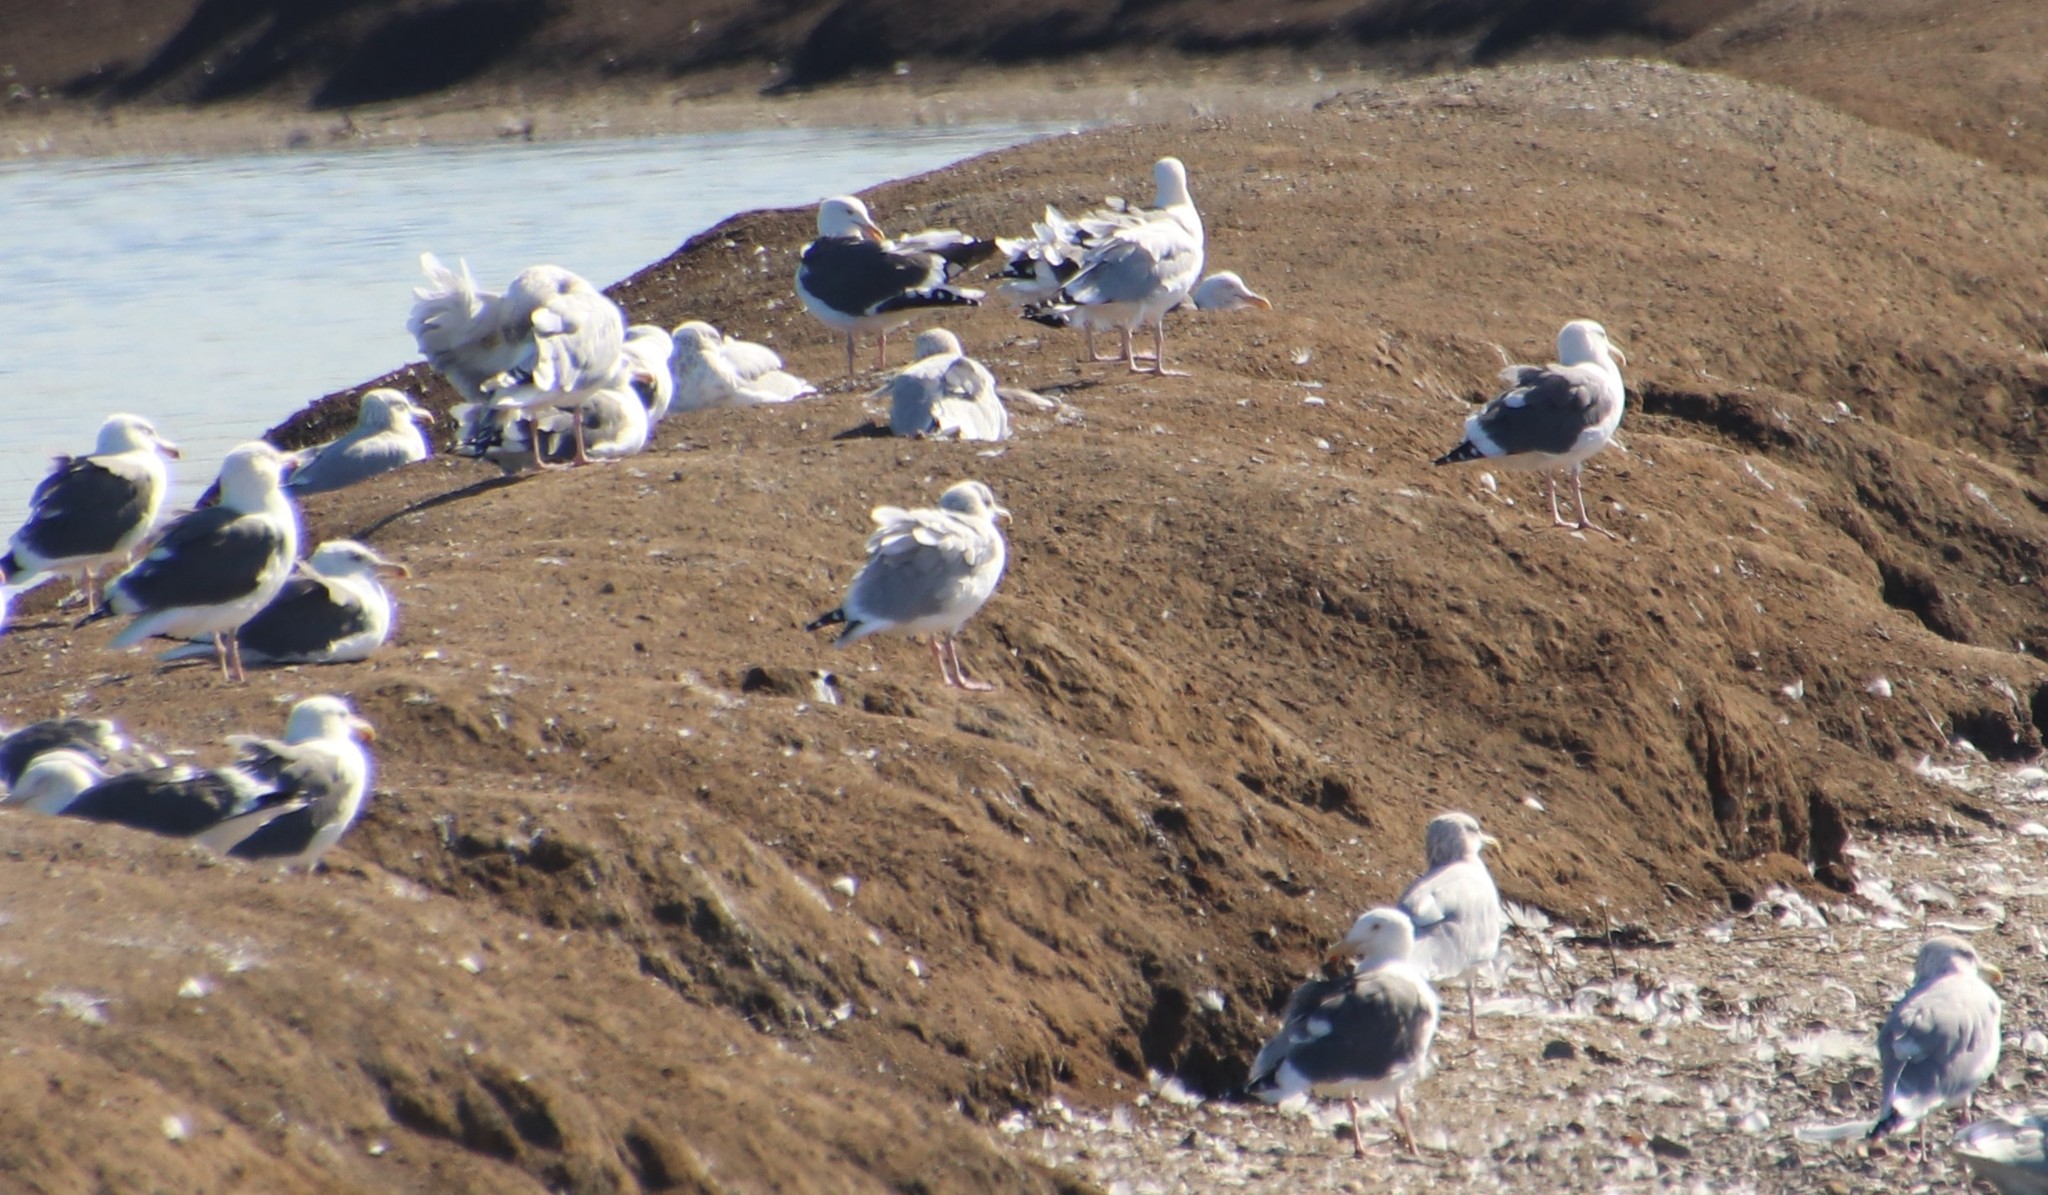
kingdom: Animalia
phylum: Chordata
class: Aves
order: Charadriiformes
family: Laridae
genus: Larus
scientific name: Larus argentatus
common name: Herring gull
